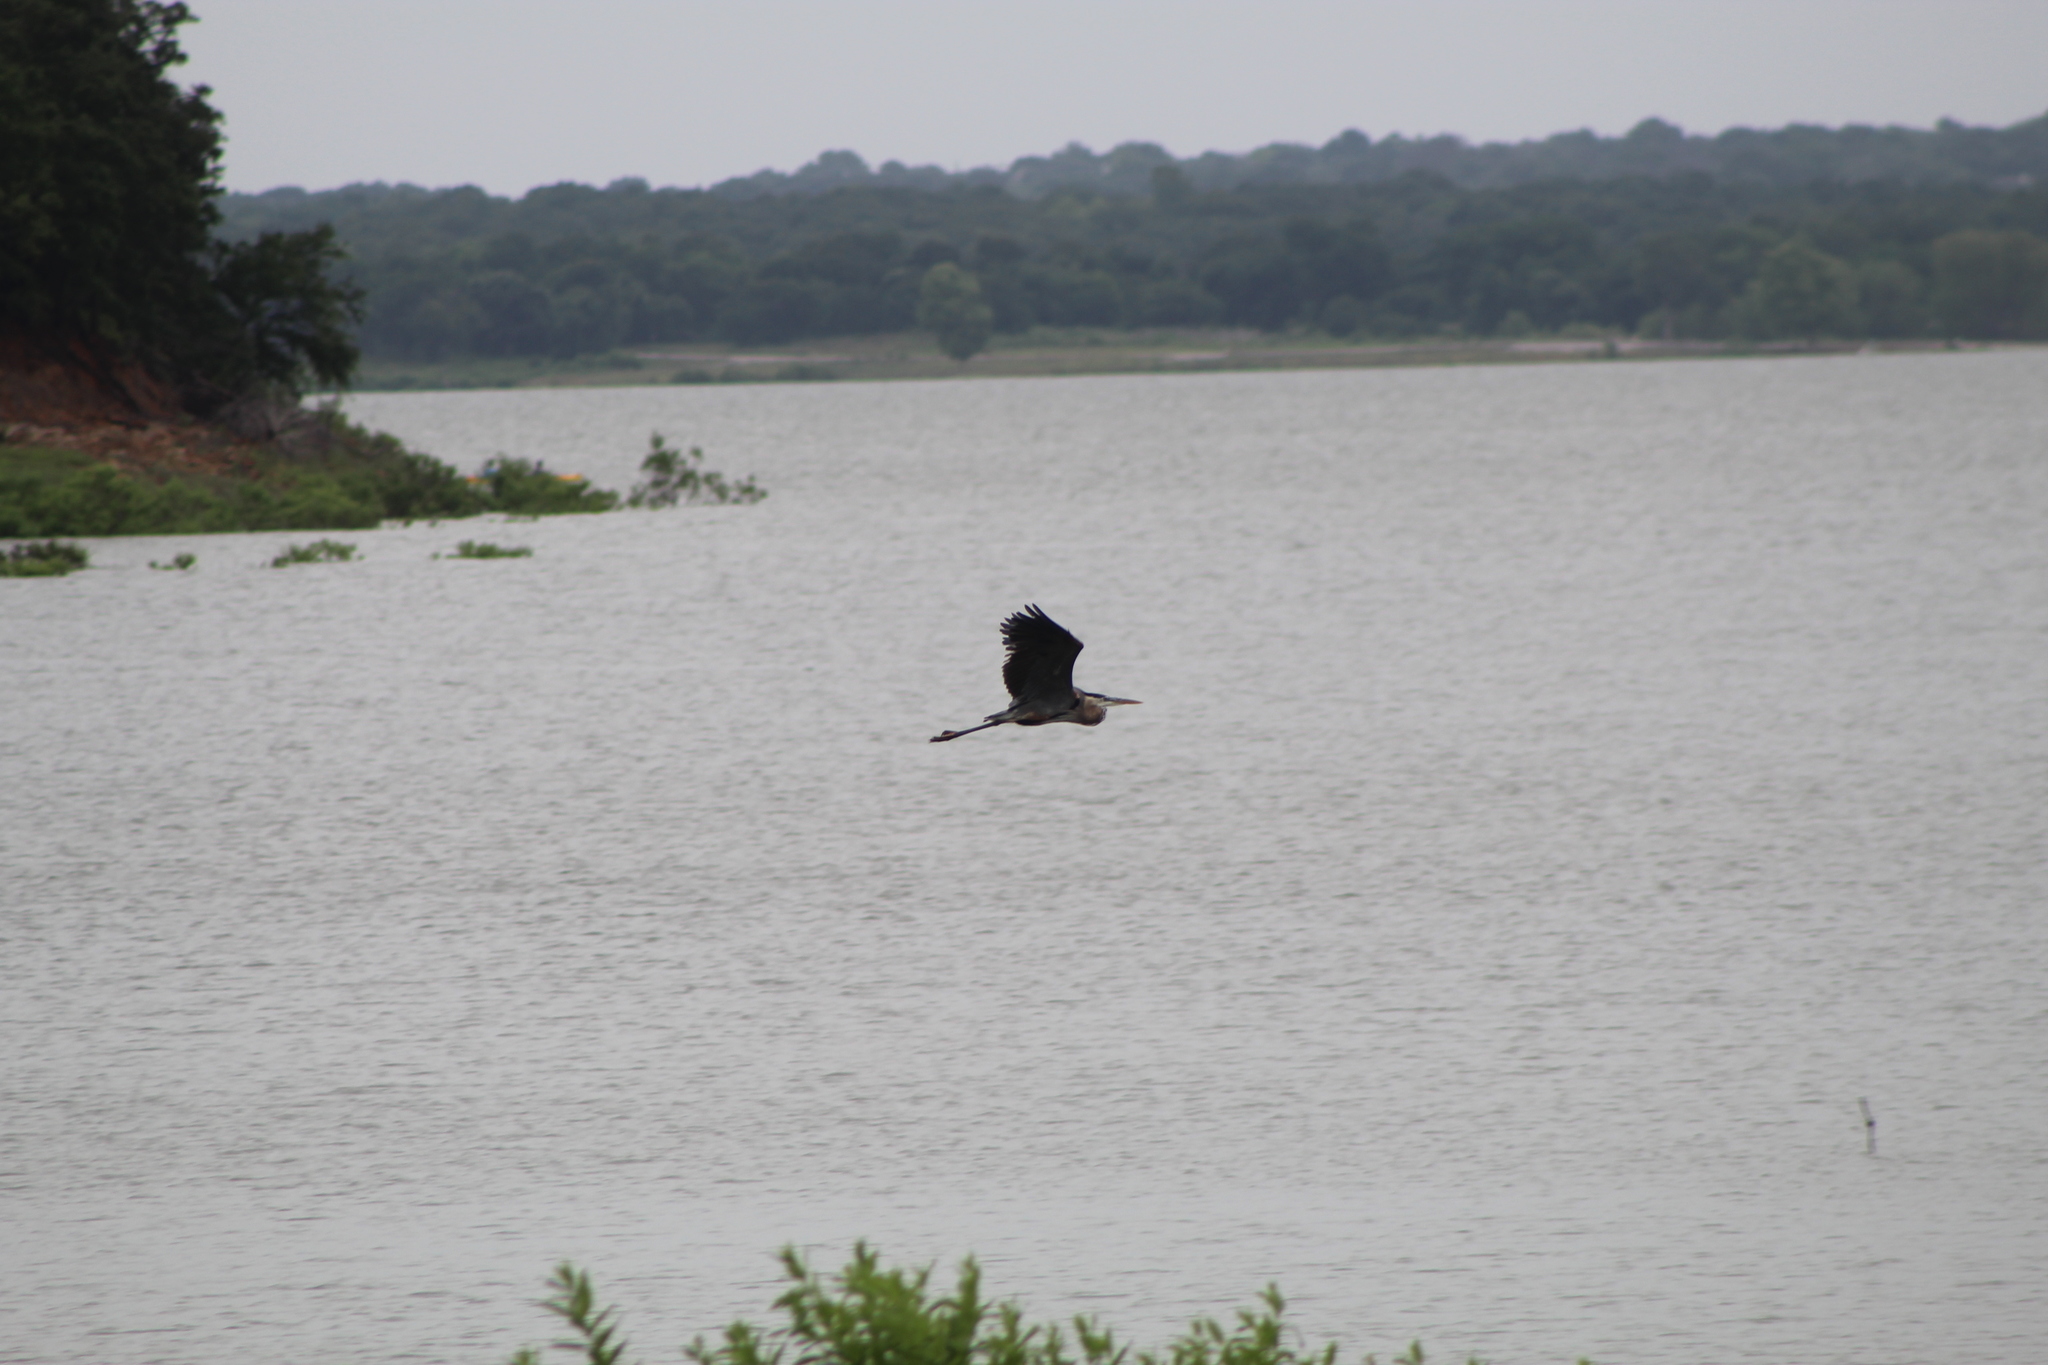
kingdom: Animalia
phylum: Chordata
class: Aves
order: Pelecaniformes
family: Ardeidae
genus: Ardea
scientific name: Ardea herodias
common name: Great blue heron
